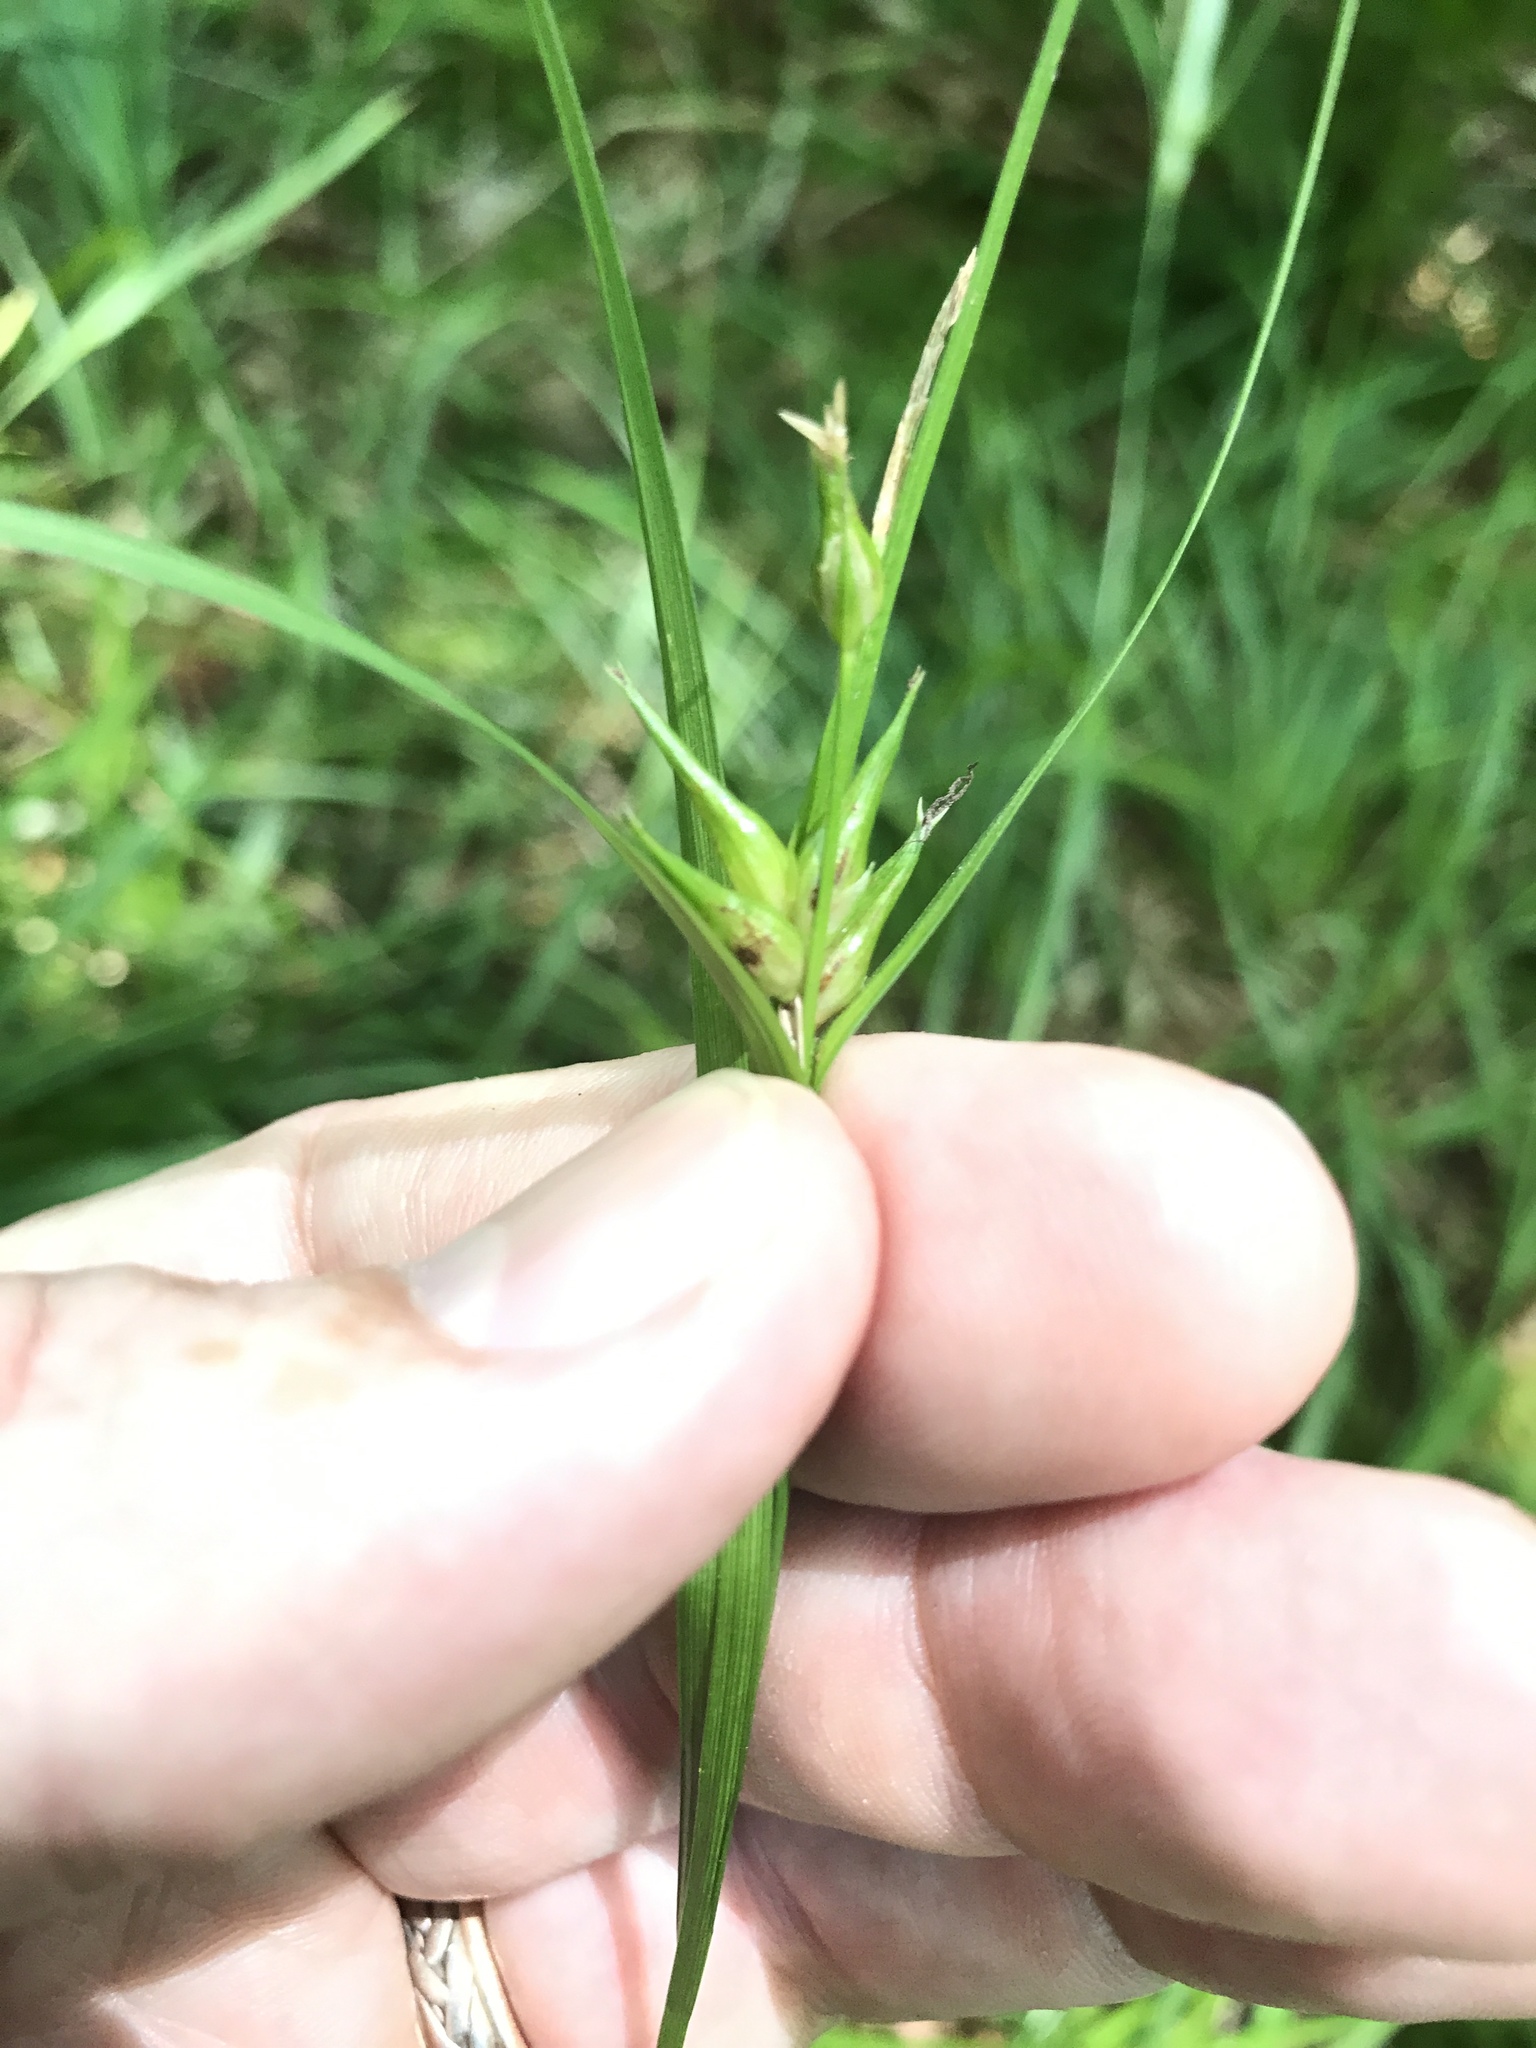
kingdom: Plantae
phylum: Tracheophyta
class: Liliopsida
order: Poales
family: Cyperaceae
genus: Carex
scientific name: Carex intumescens
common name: Greater bladder sedge
